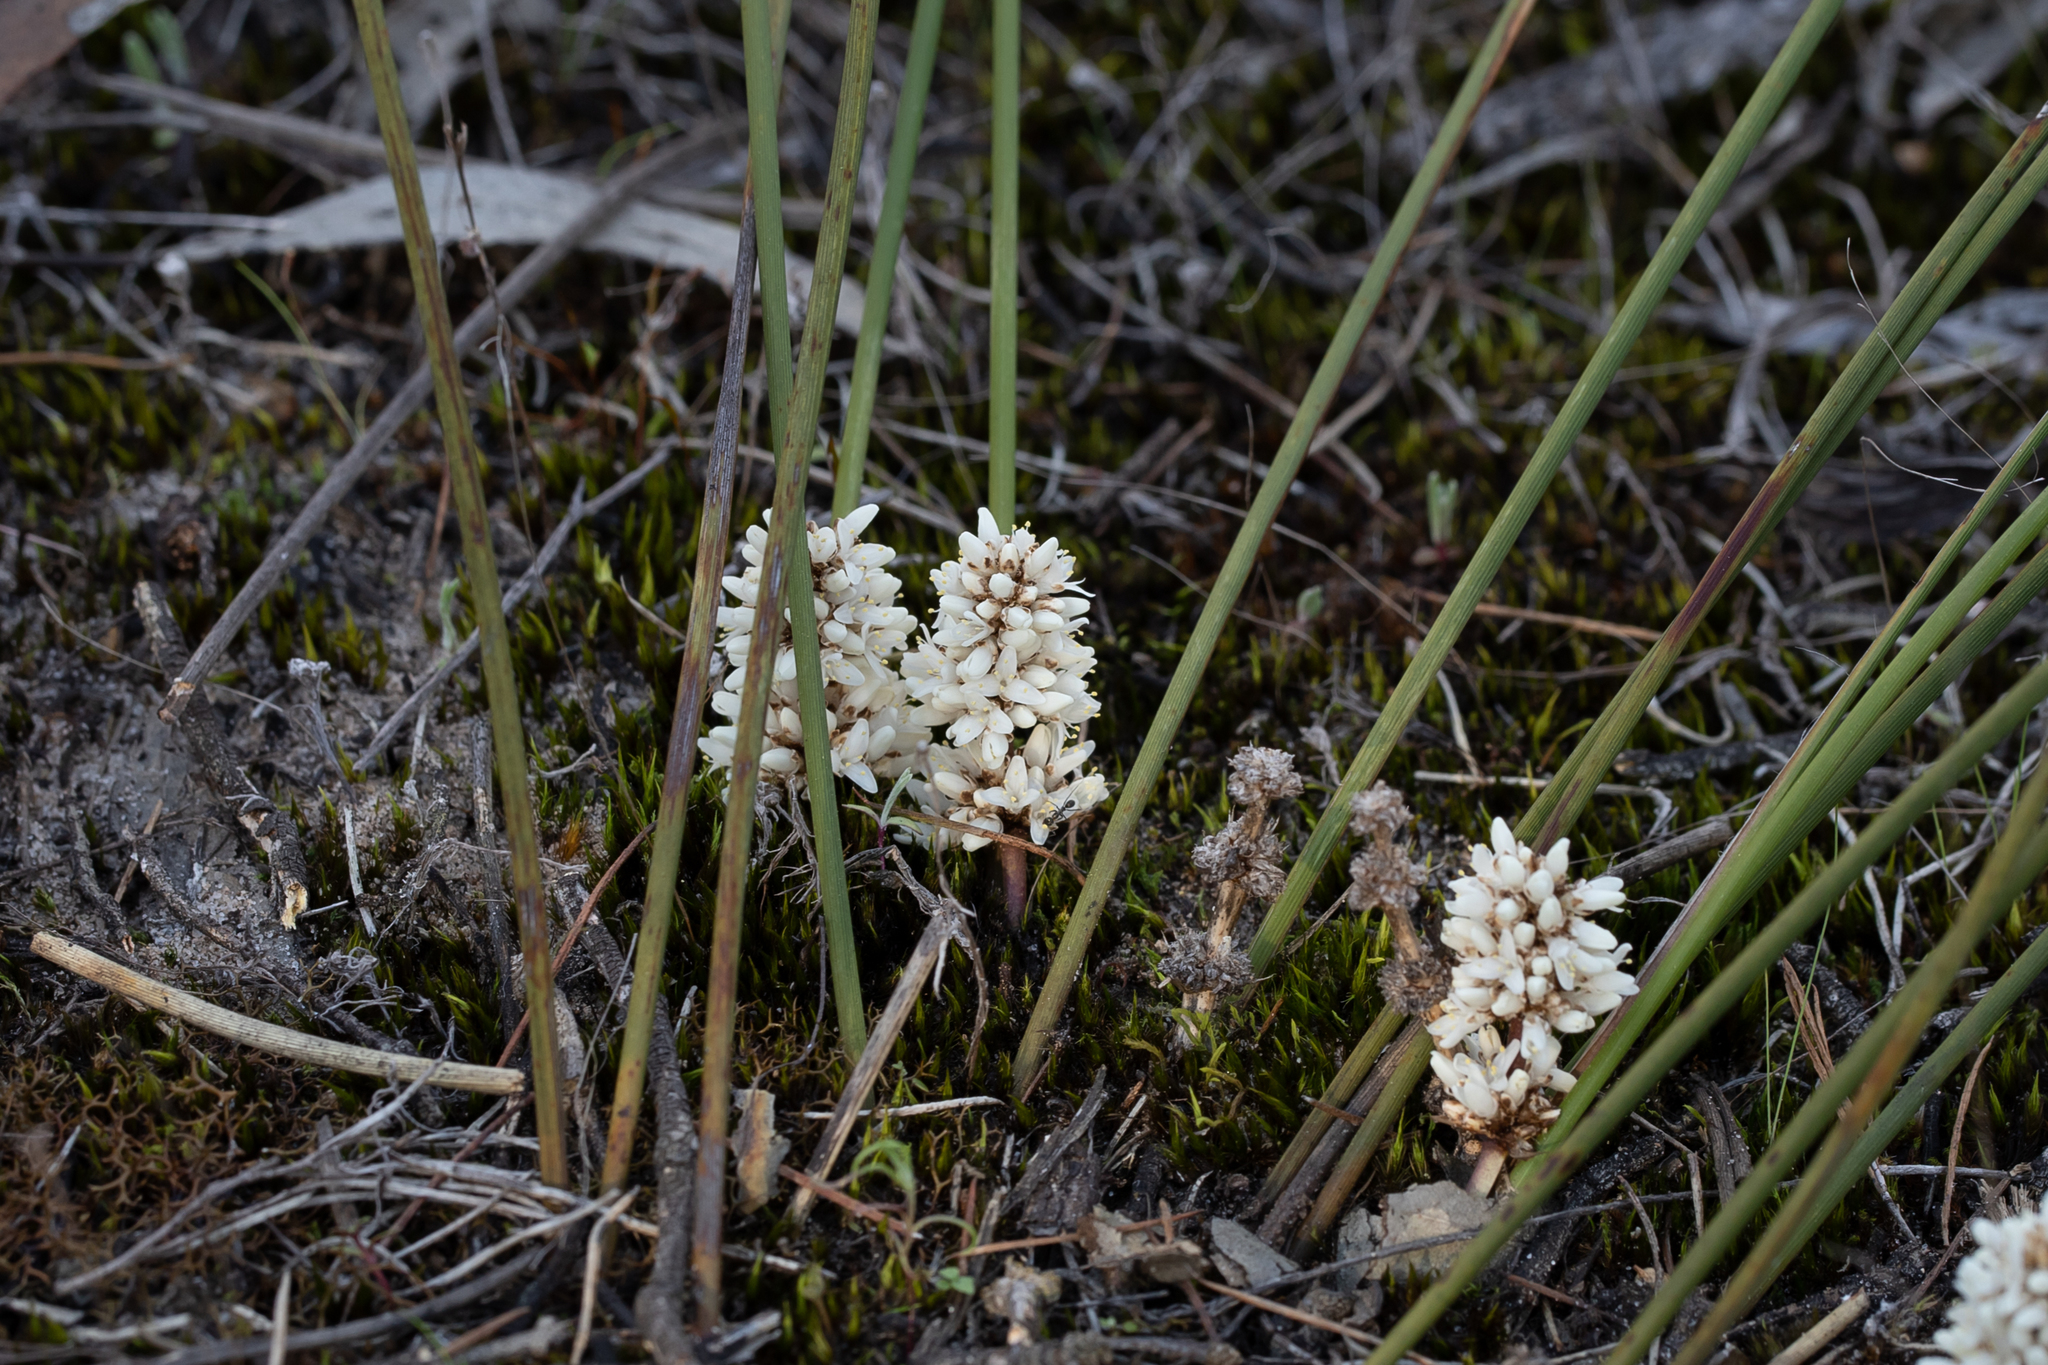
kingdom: Plantae
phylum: Tracheophyta
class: Liliopsida
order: Asparagales
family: Asparagaceae
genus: Lomandra
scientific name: Lomandra juncea
